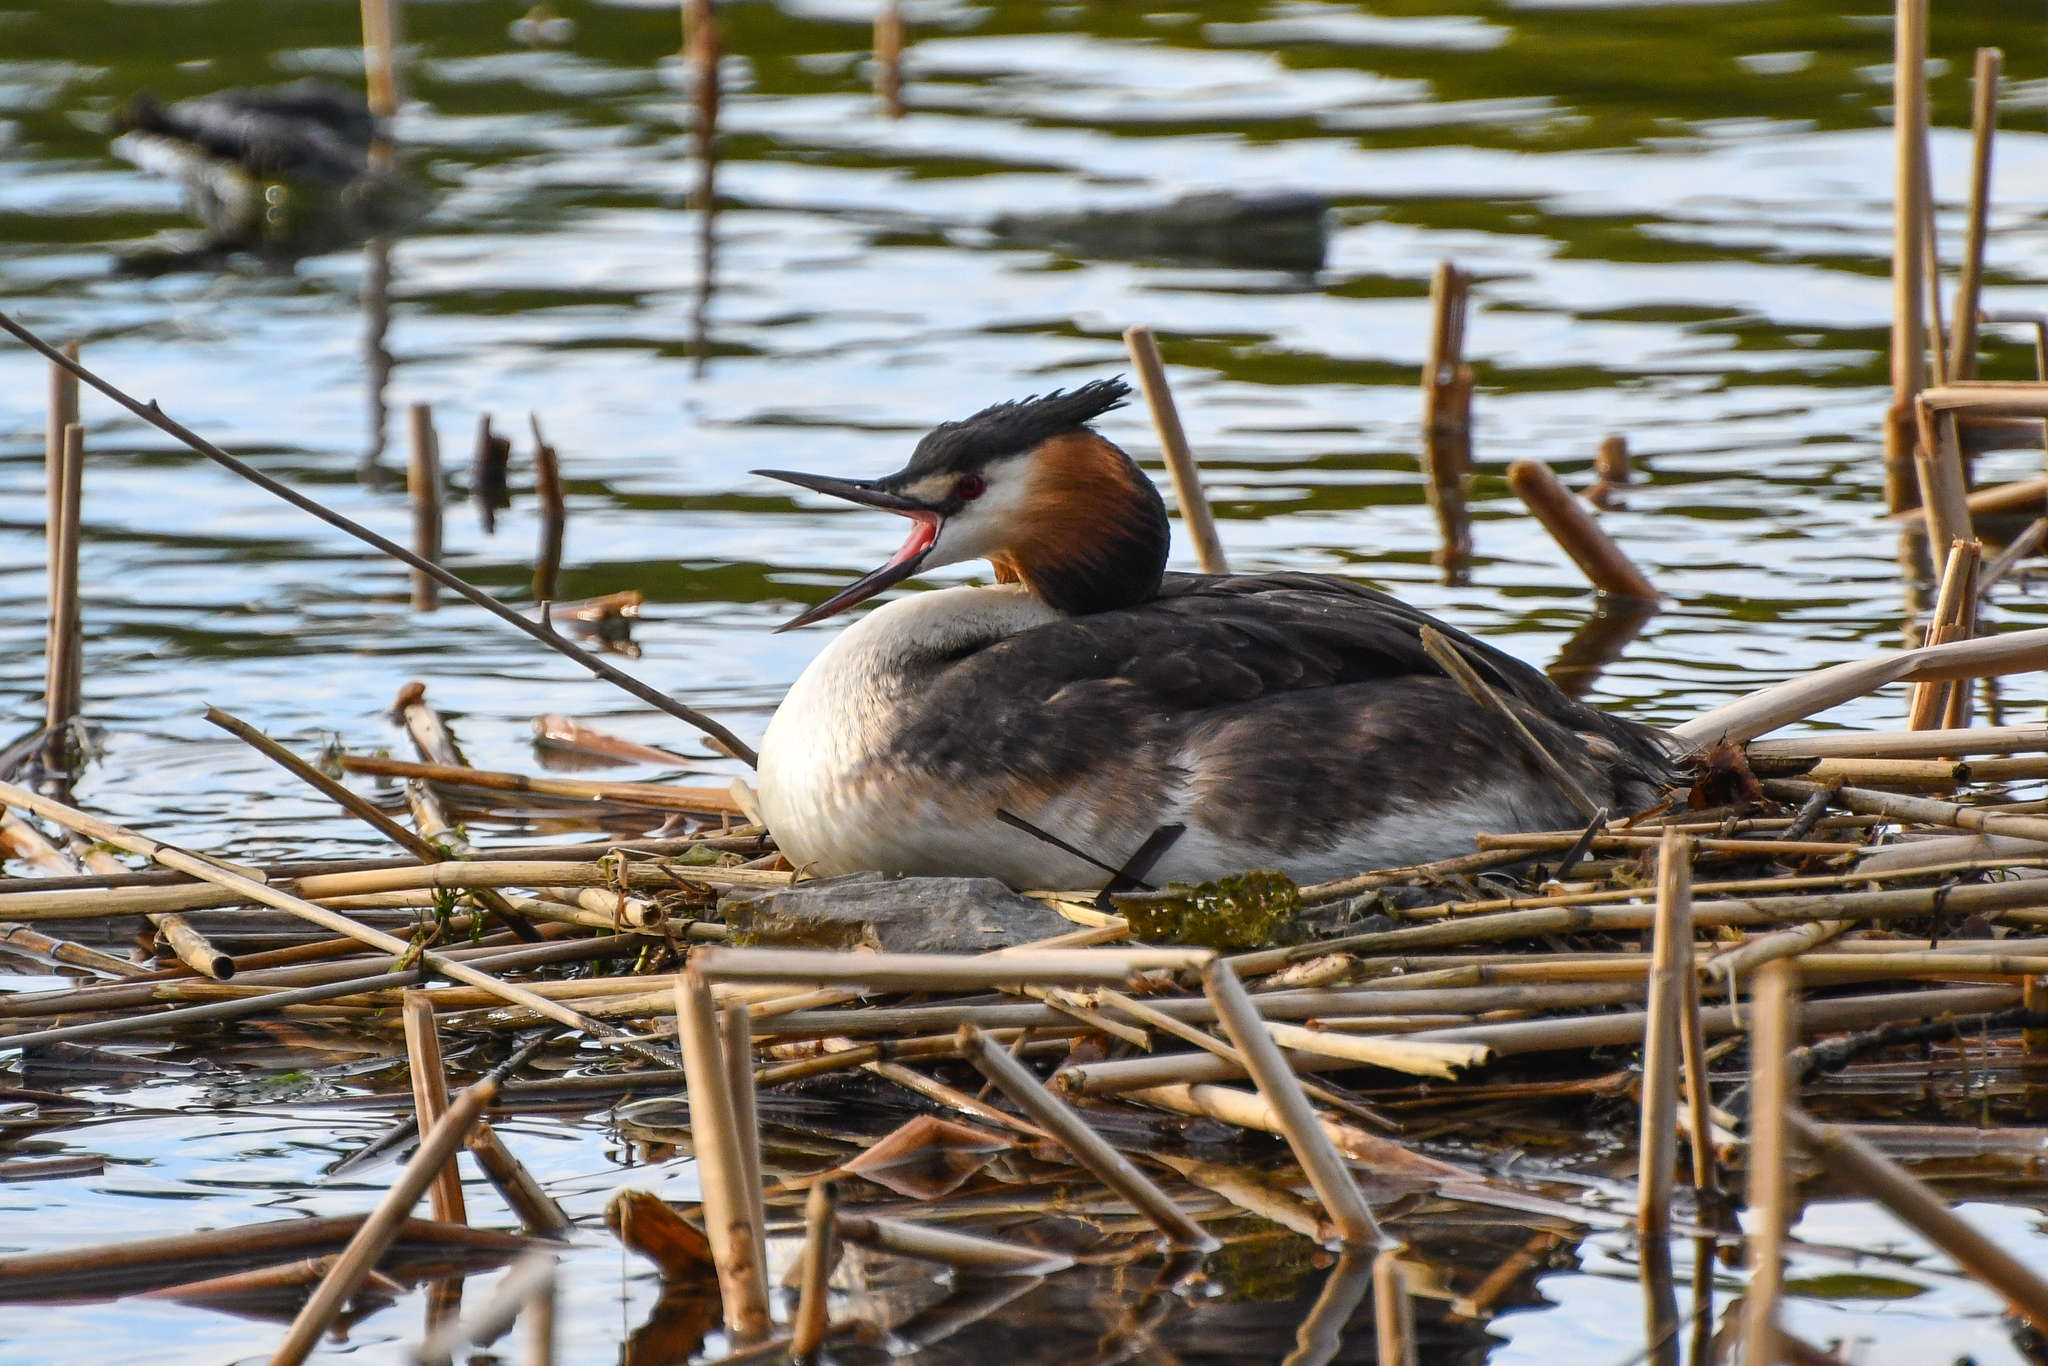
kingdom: Animalia
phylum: Chordata
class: Aves
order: Podicipediformes
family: Podicipedidae
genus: Podiceps
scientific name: Podiceps cristatus
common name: Great crested grebe
